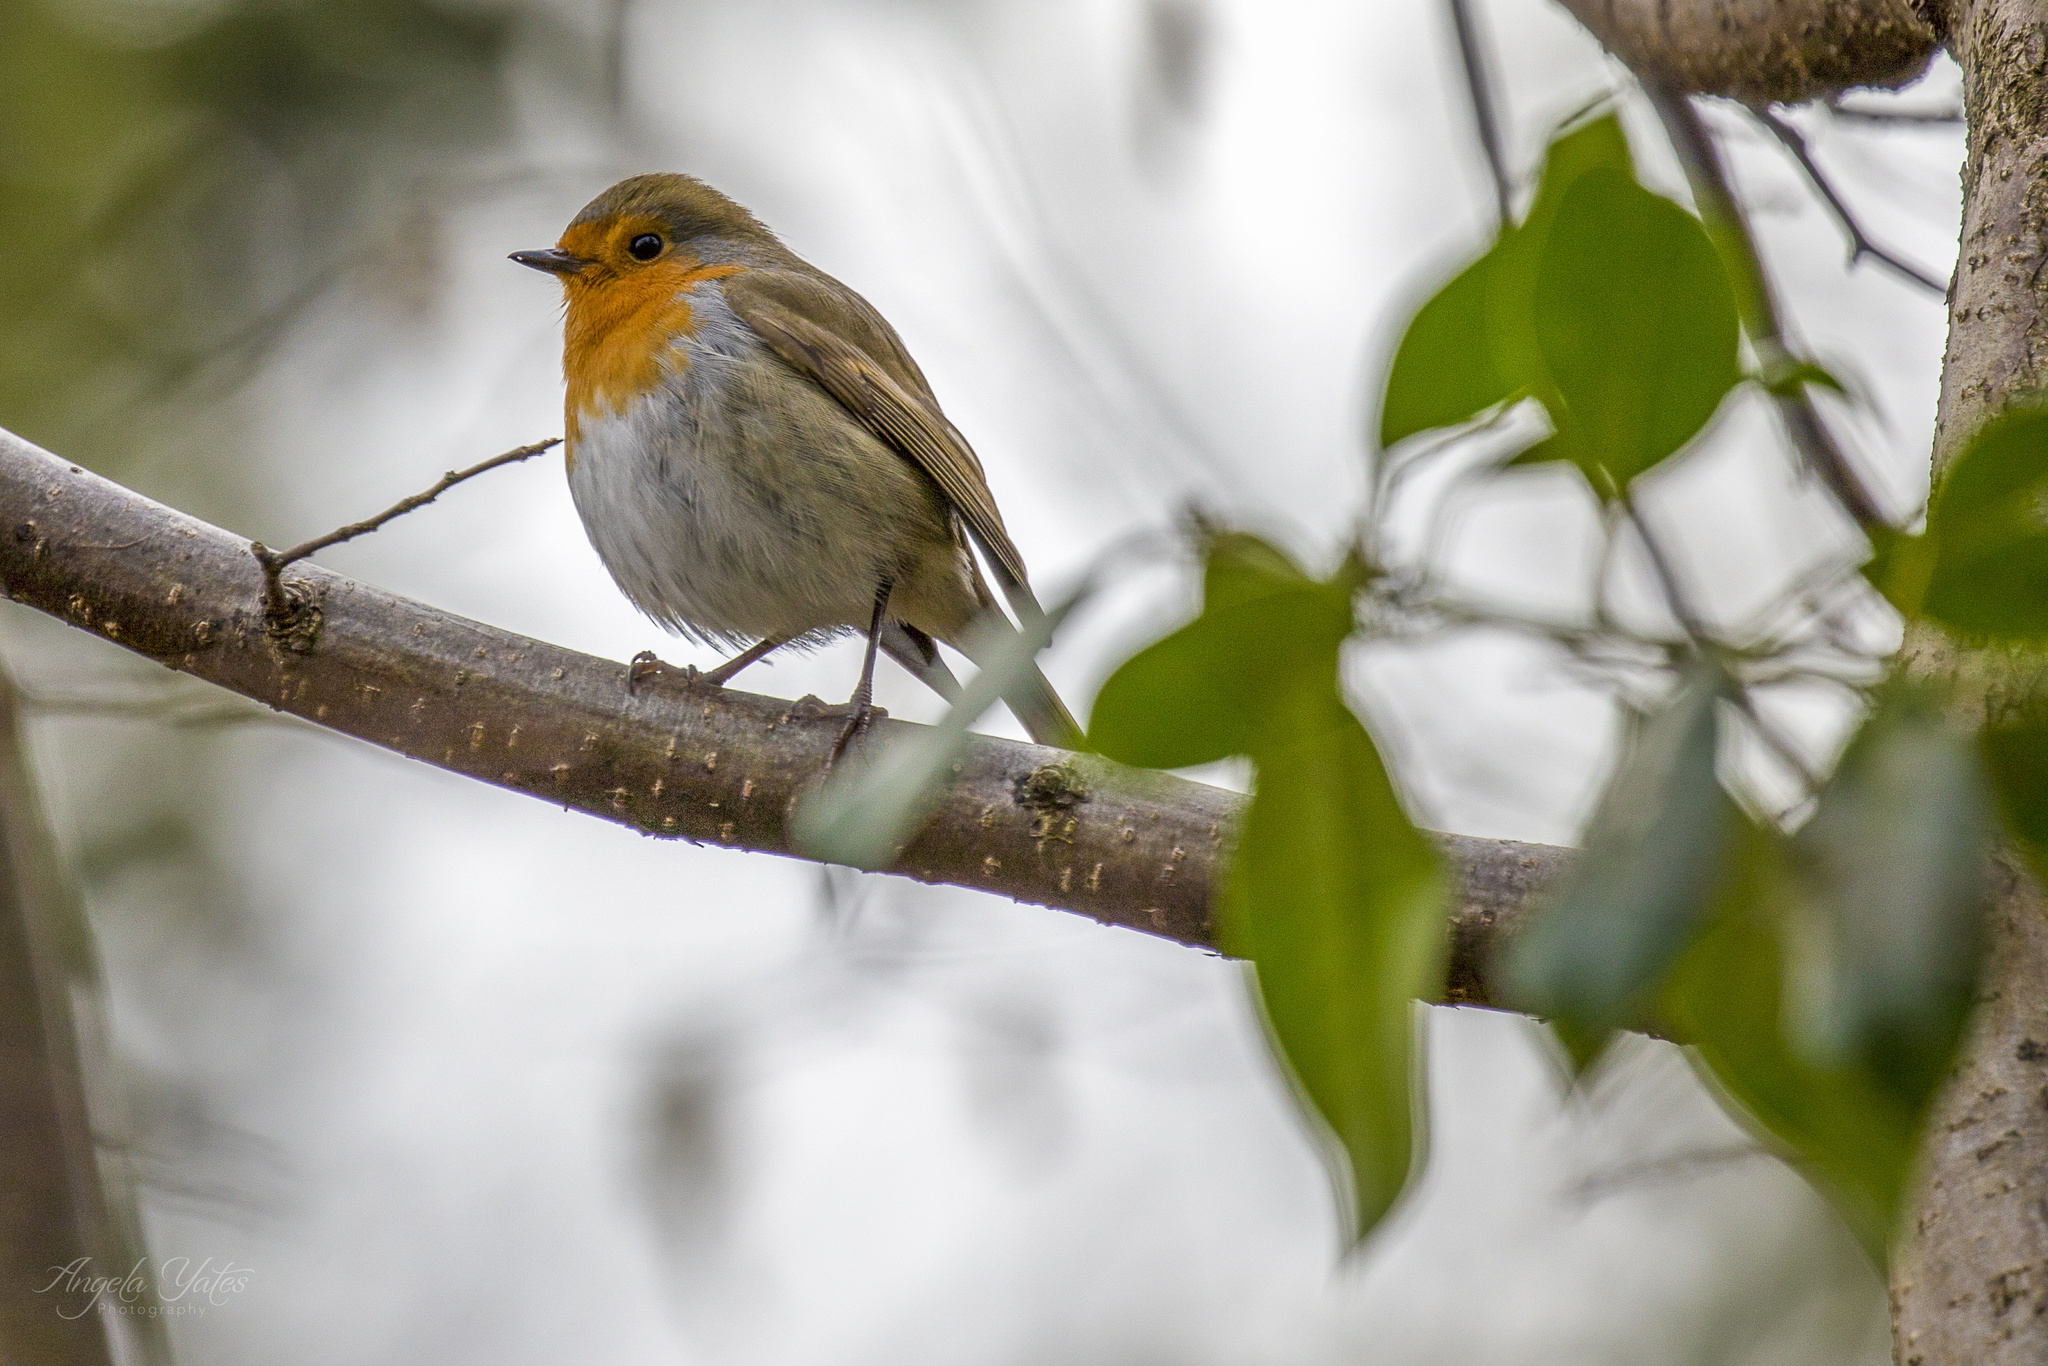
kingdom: Animalia
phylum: Chordata
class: Aves
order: Passeriformes
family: Muscicapidae
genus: Erithacus
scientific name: Erithacus rubecula
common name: European robin
